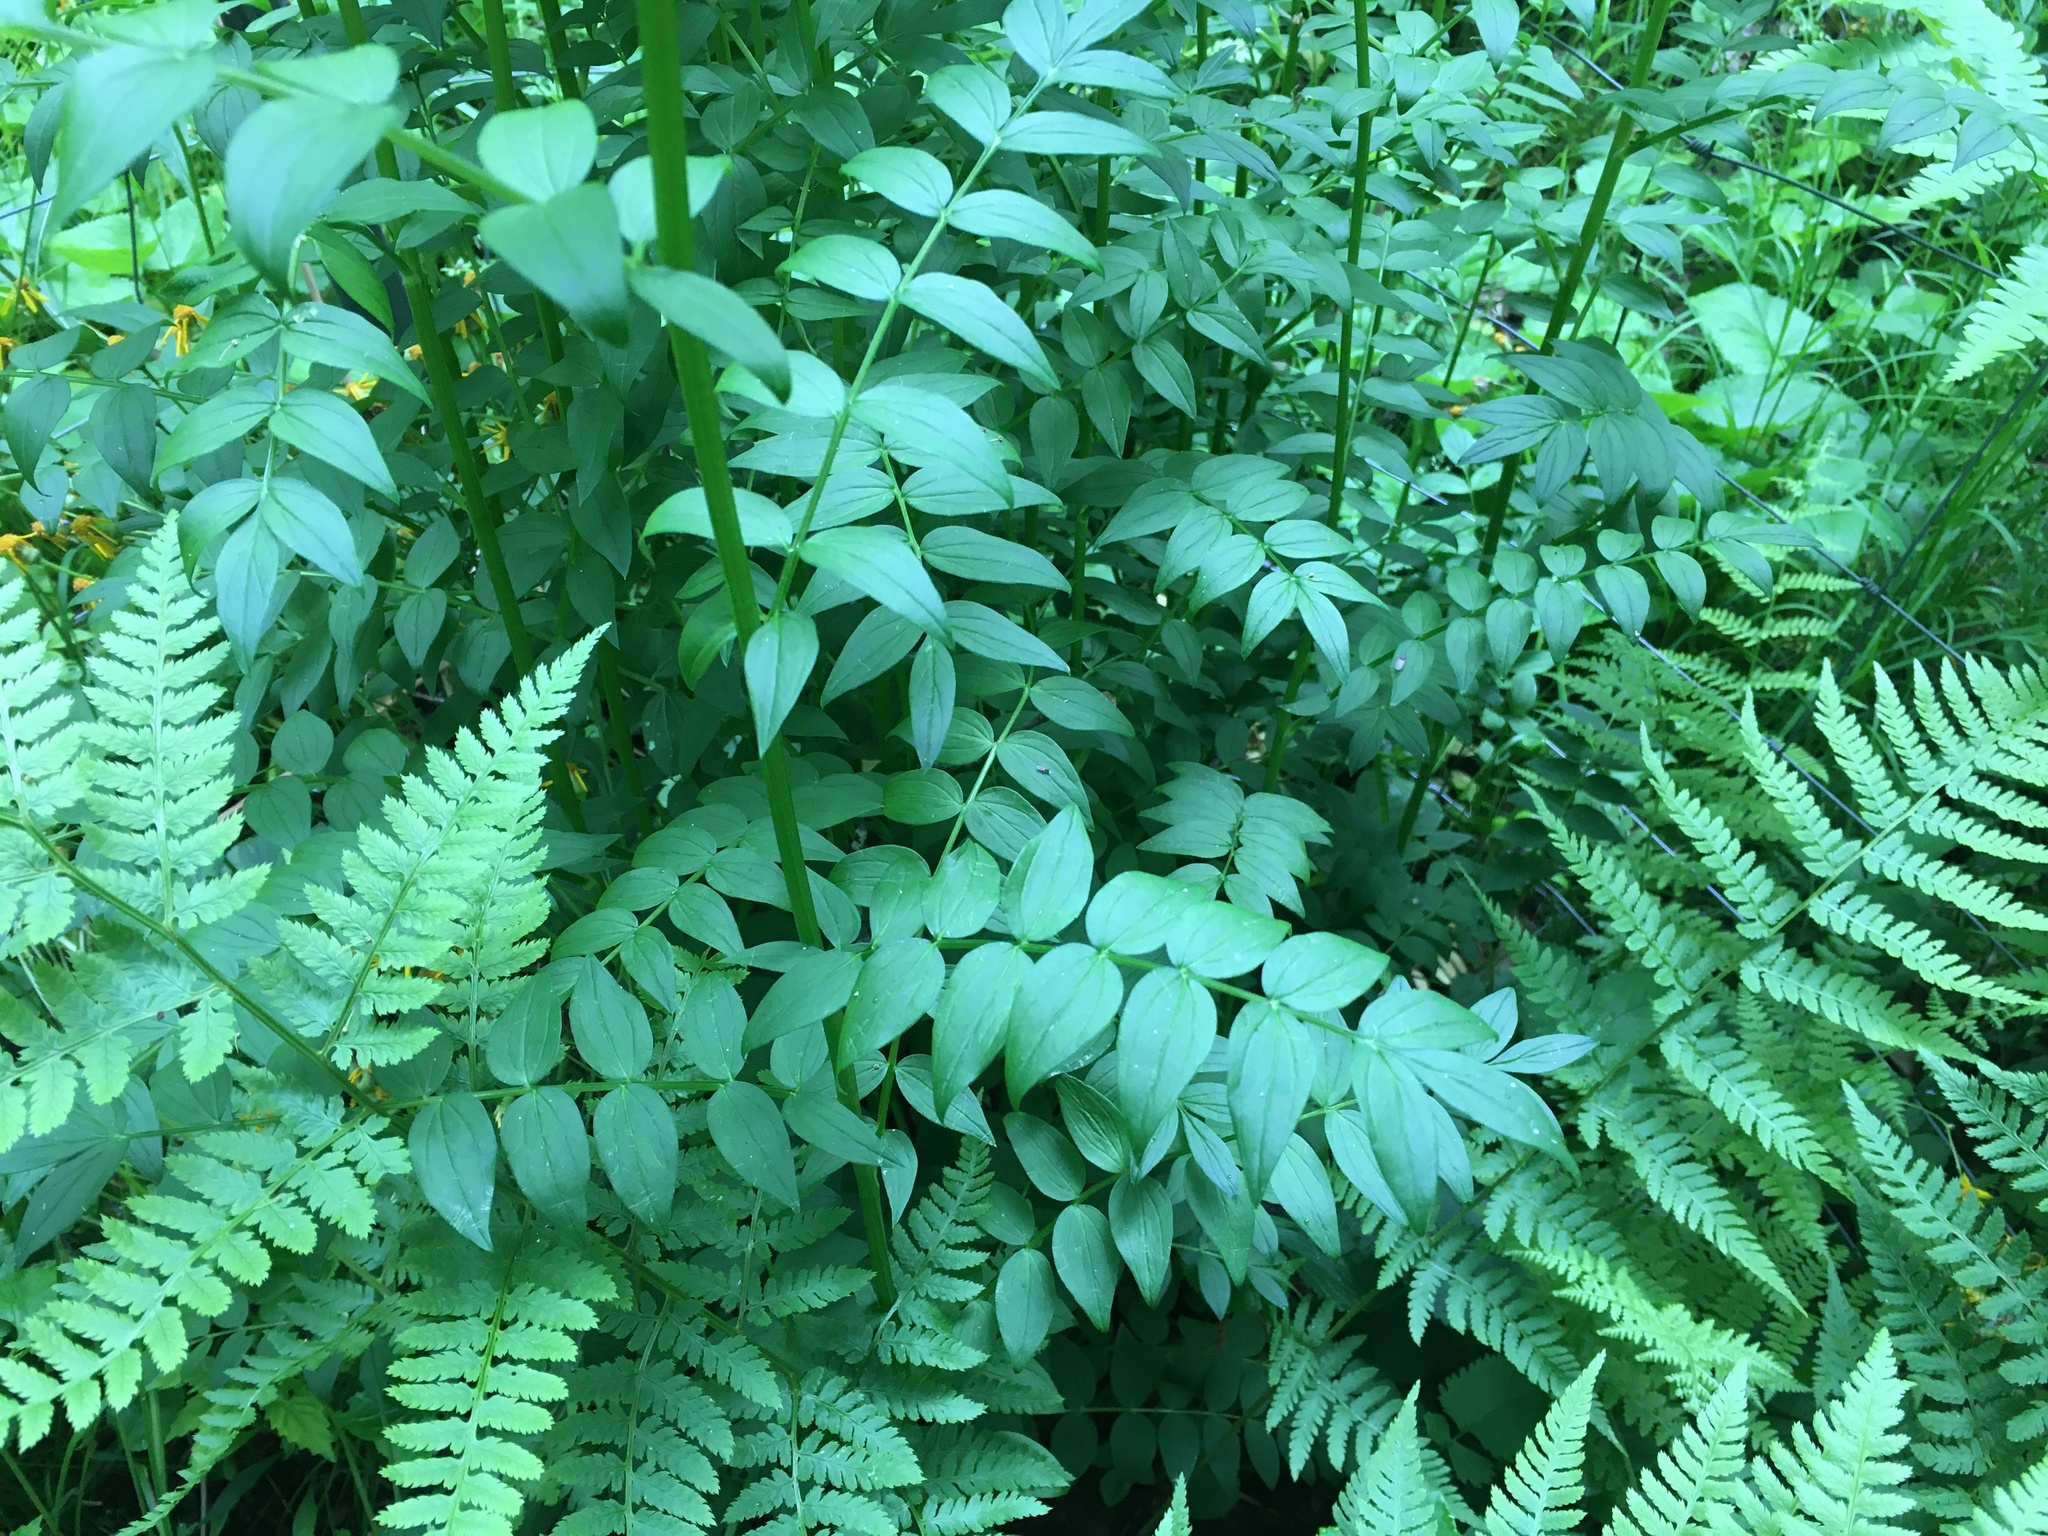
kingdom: Plantae
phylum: Tracheophyta
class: Magnoliopsida
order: Ericales
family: Polemoniaceae
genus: Polemonium
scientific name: Polemonium vanbruntiae
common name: Bog jacob's-ladder
